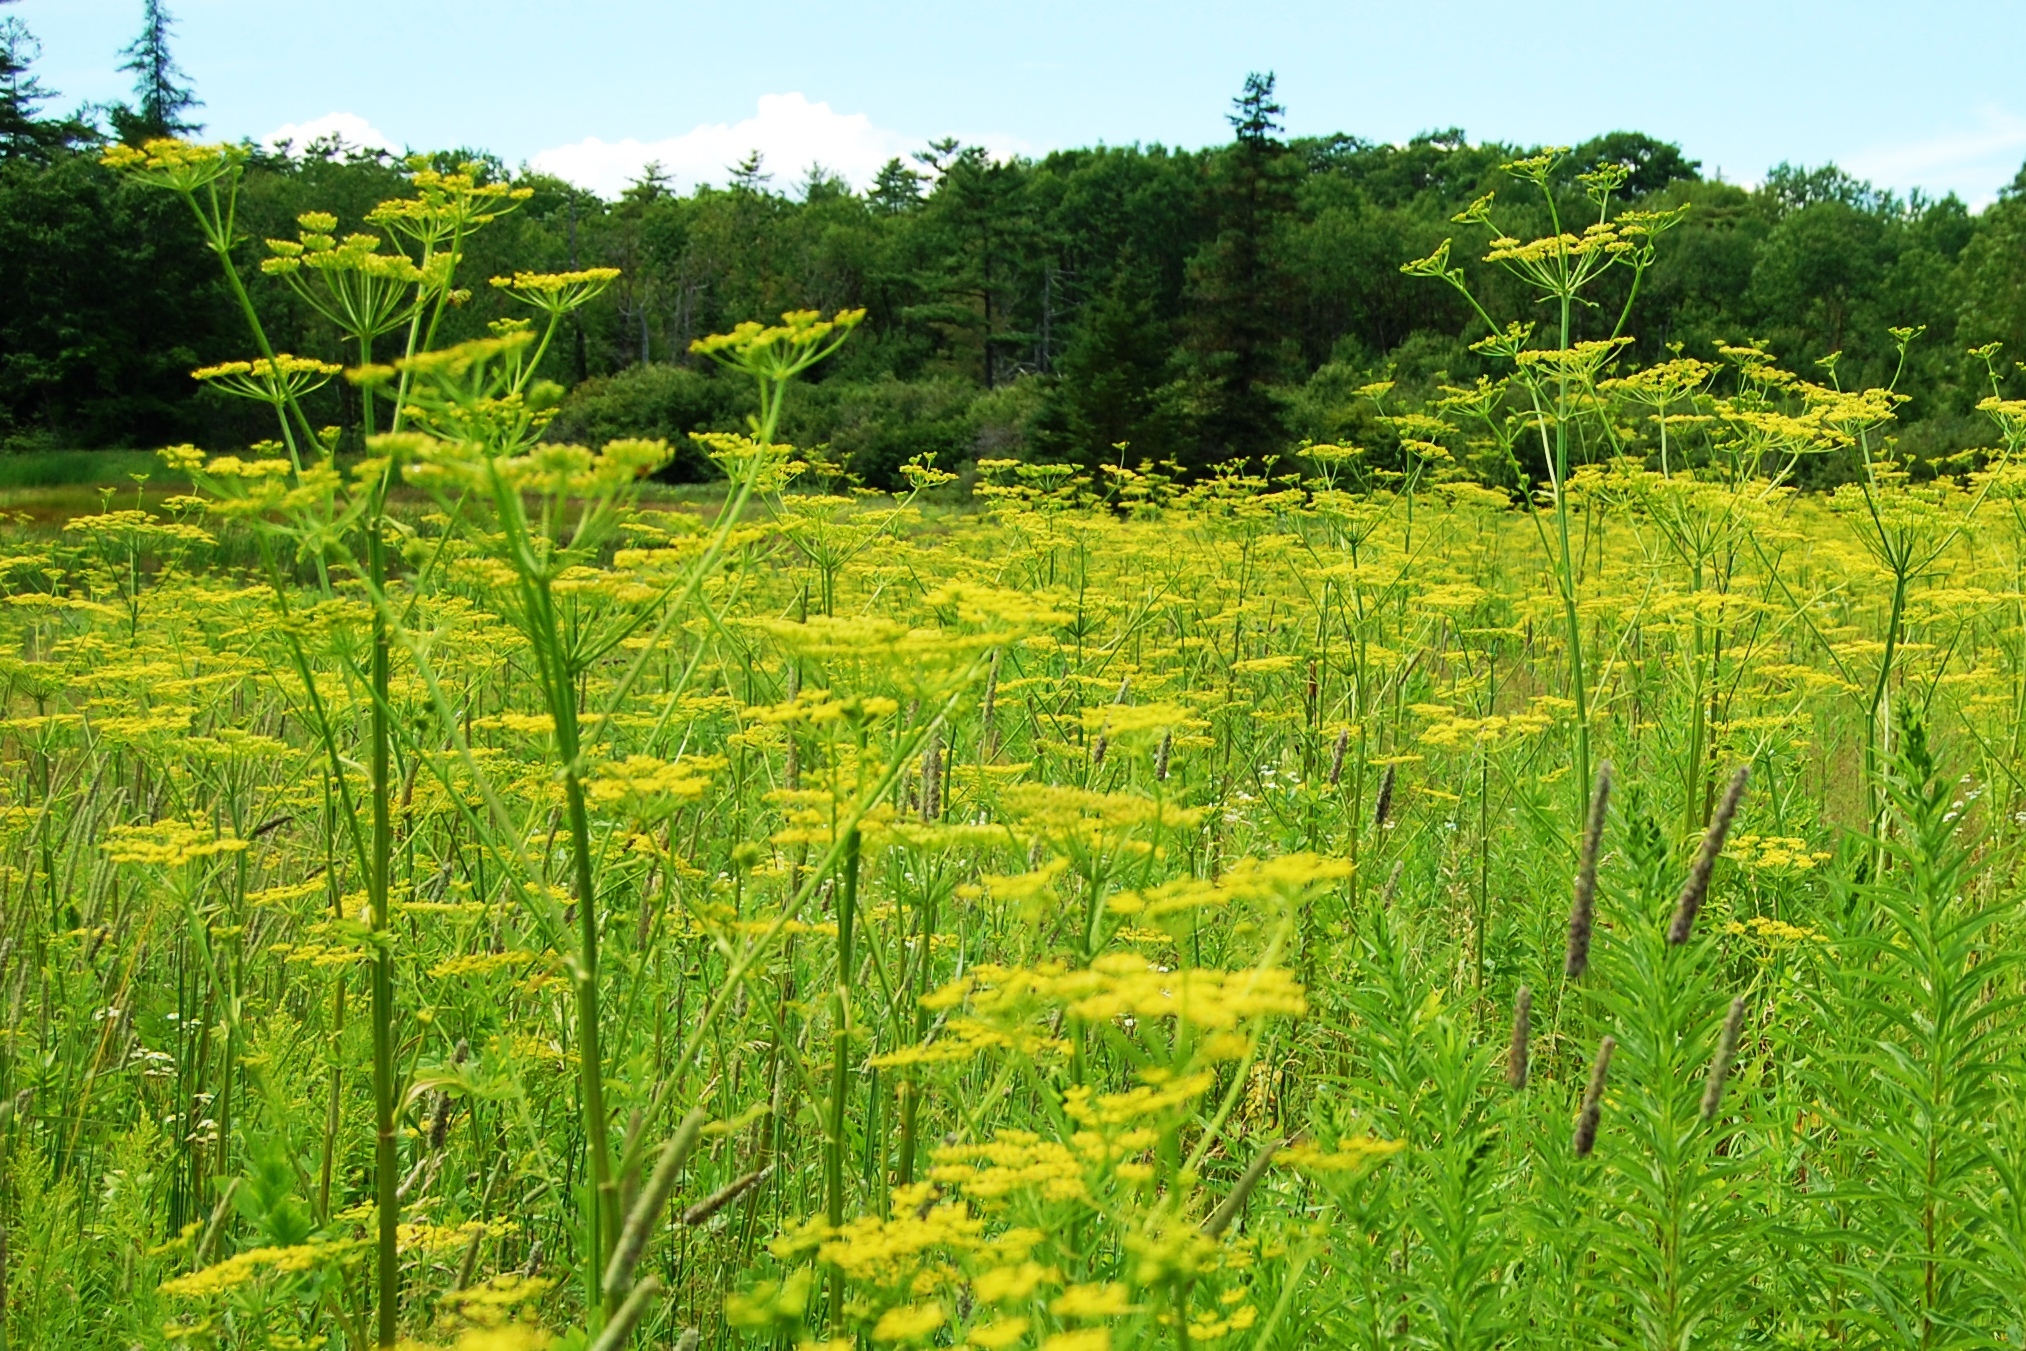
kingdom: Plantae
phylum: Tracheophyta
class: Magnoliopsida
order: Apiales
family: Apiaceae
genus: Pastinaca
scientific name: Pastinaca sativa
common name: Wild parsnip
